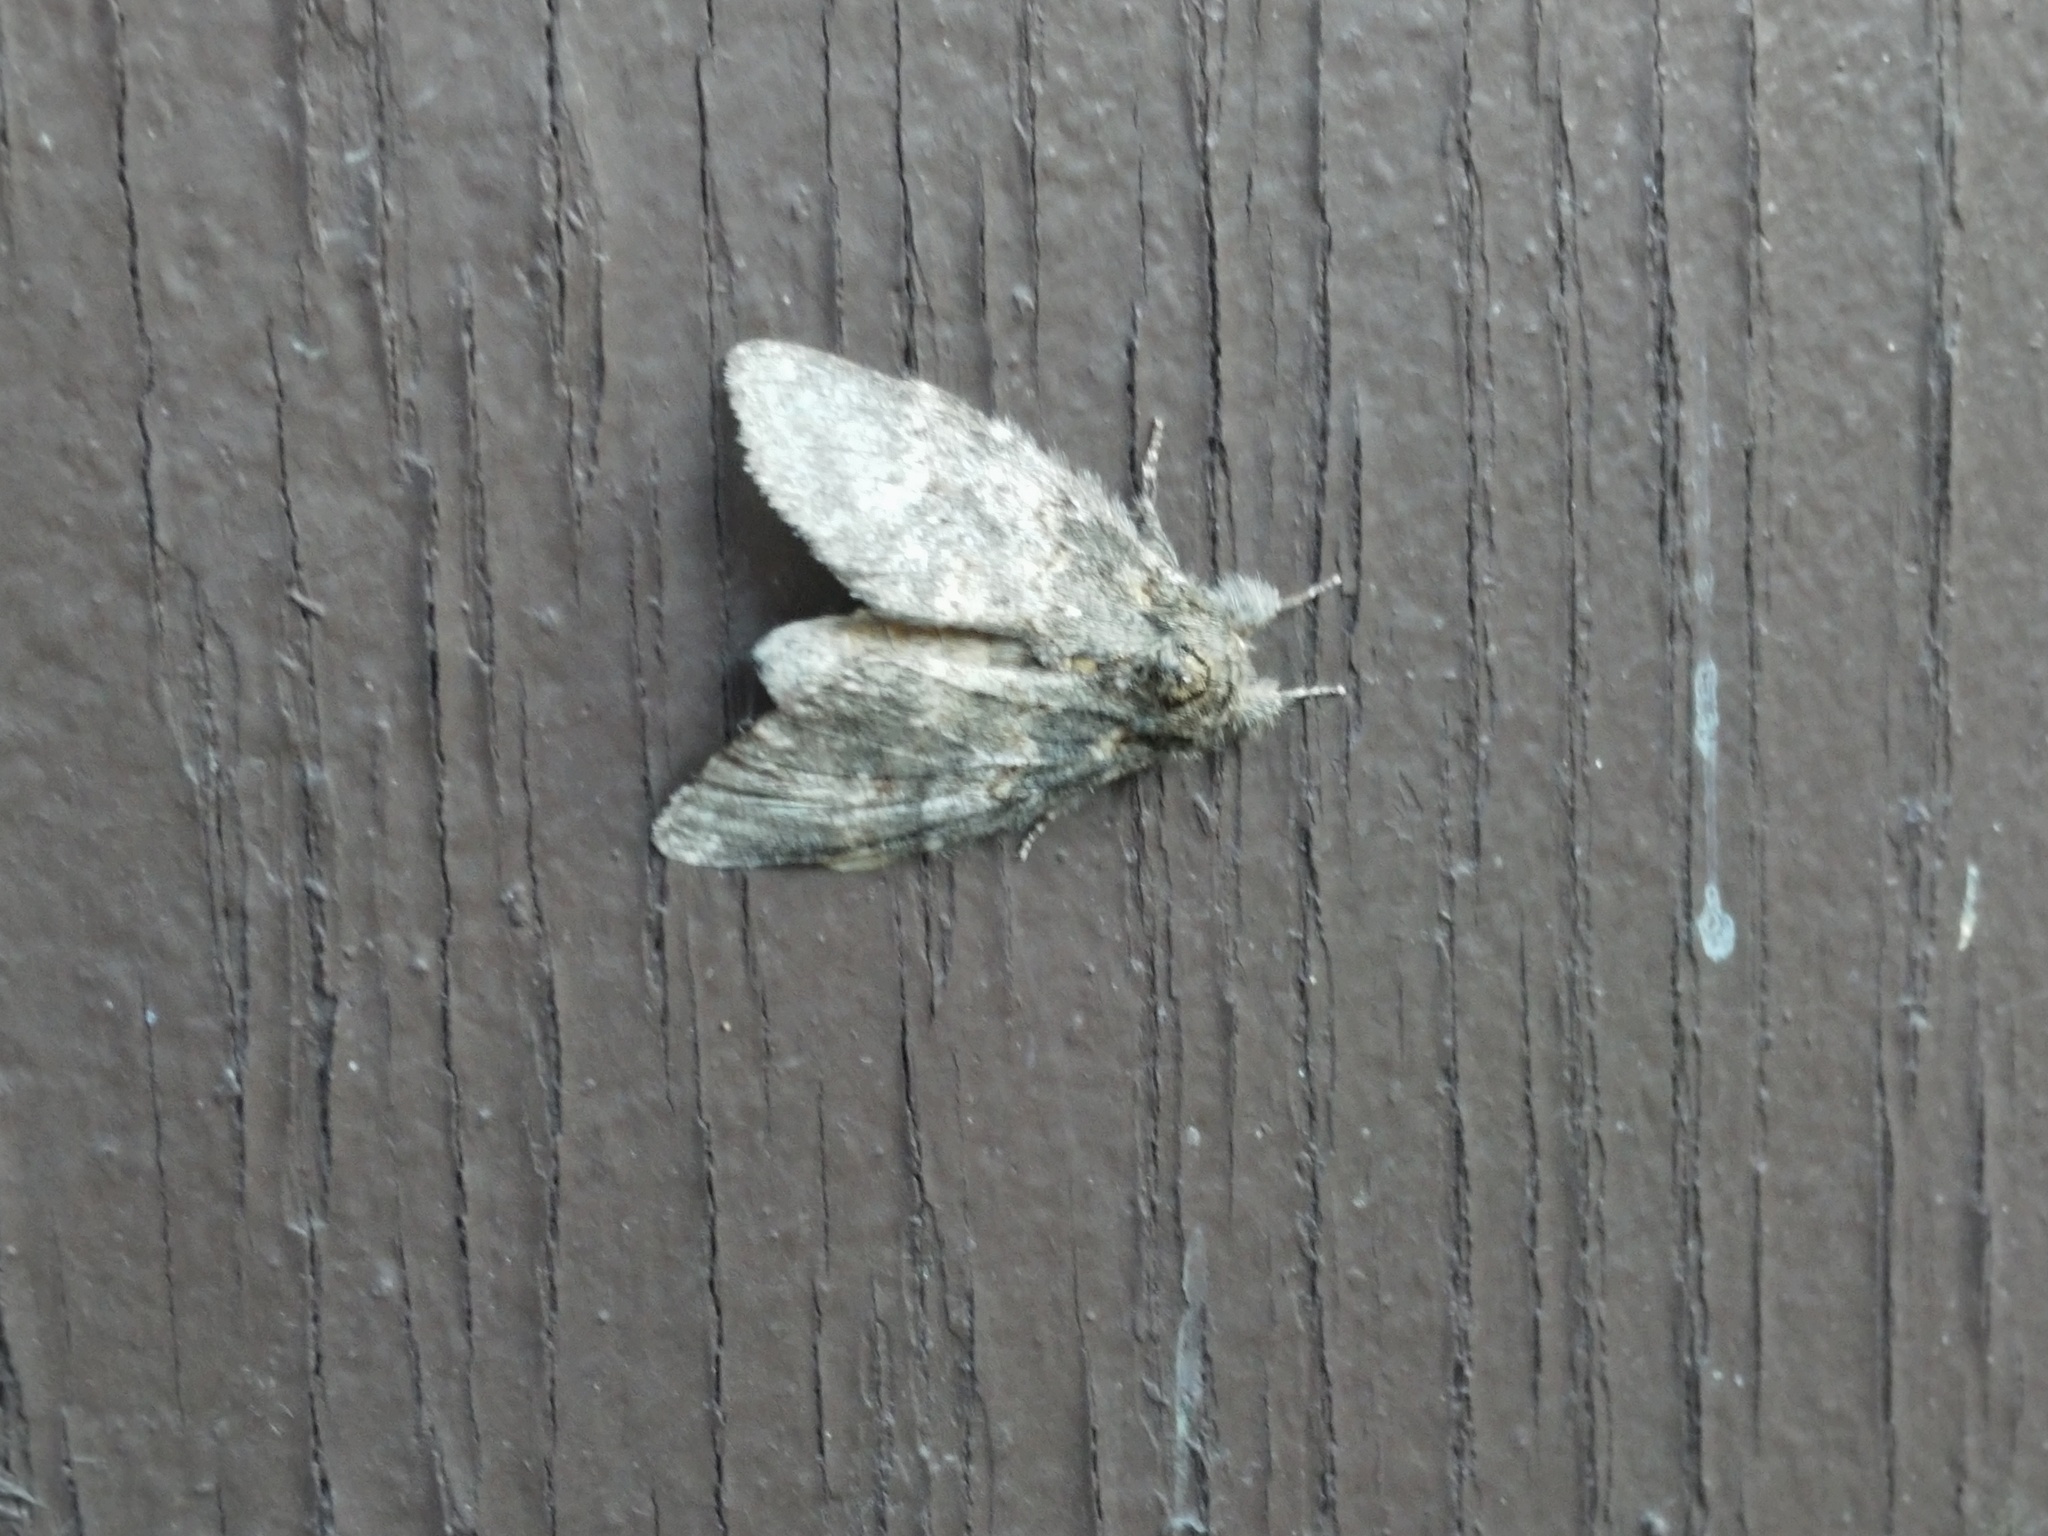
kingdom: Animalia
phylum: Arthropoda
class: Insecta
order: Lepidoptera
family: Notodontidae
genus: Peridea
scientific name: Peridea angulosa
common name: Angulose prominent
